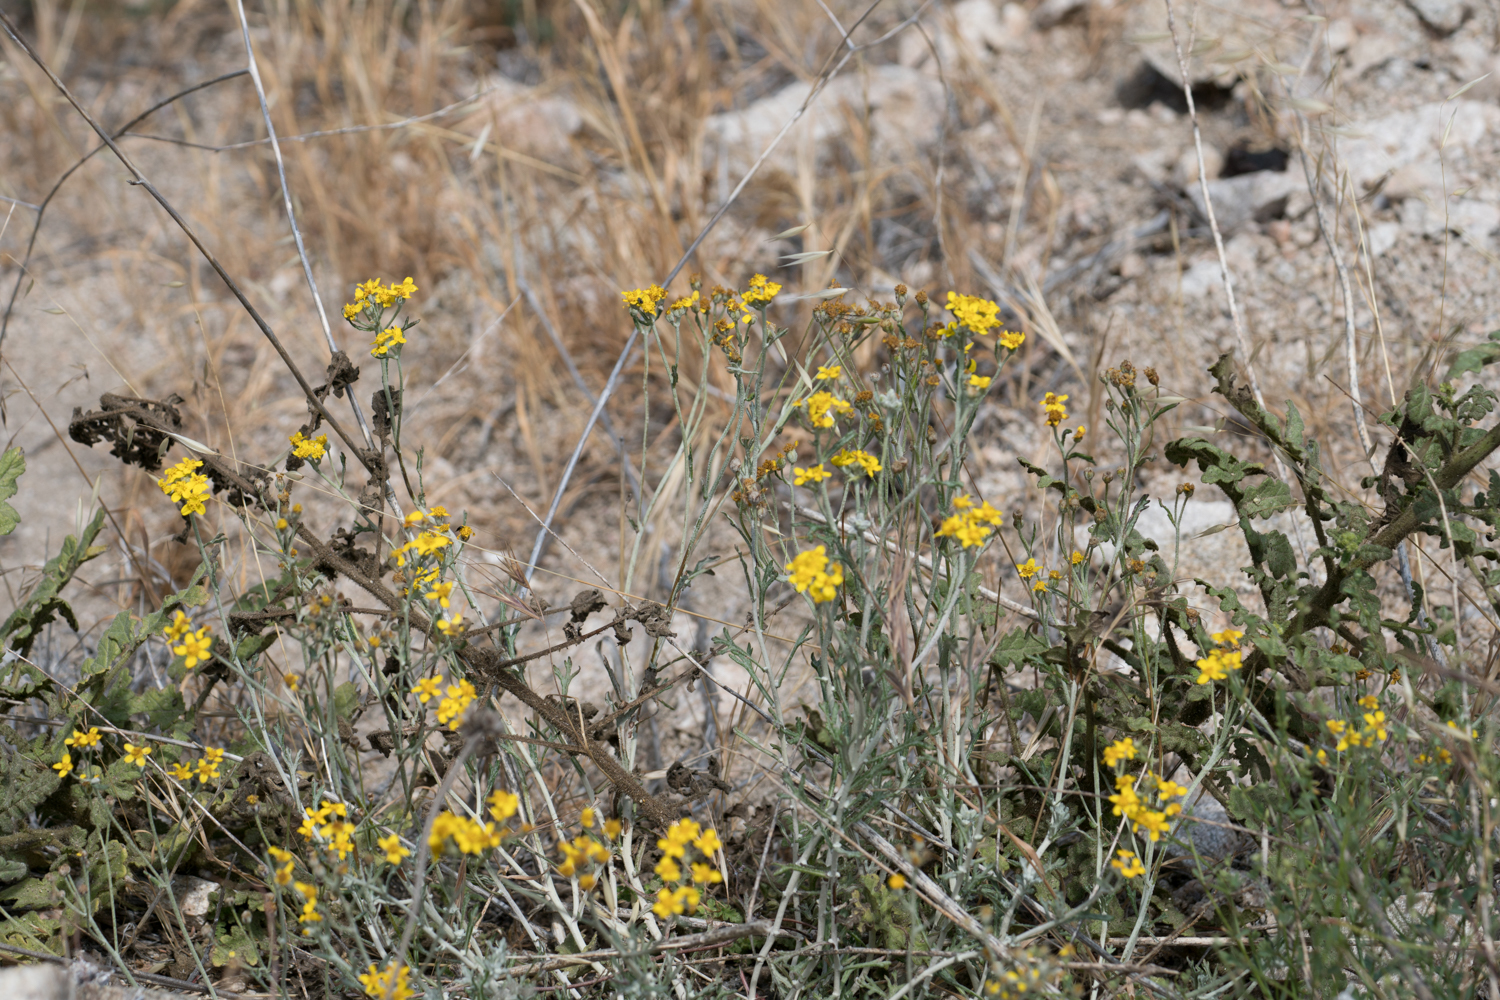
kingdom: Plantae
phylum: Tracheophyta
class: Magnoliopsida
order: Asterales
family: Asteraceae
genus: Eriophyllum
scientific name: Eriophyllum confertiflorum
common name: Golden-yarrow
